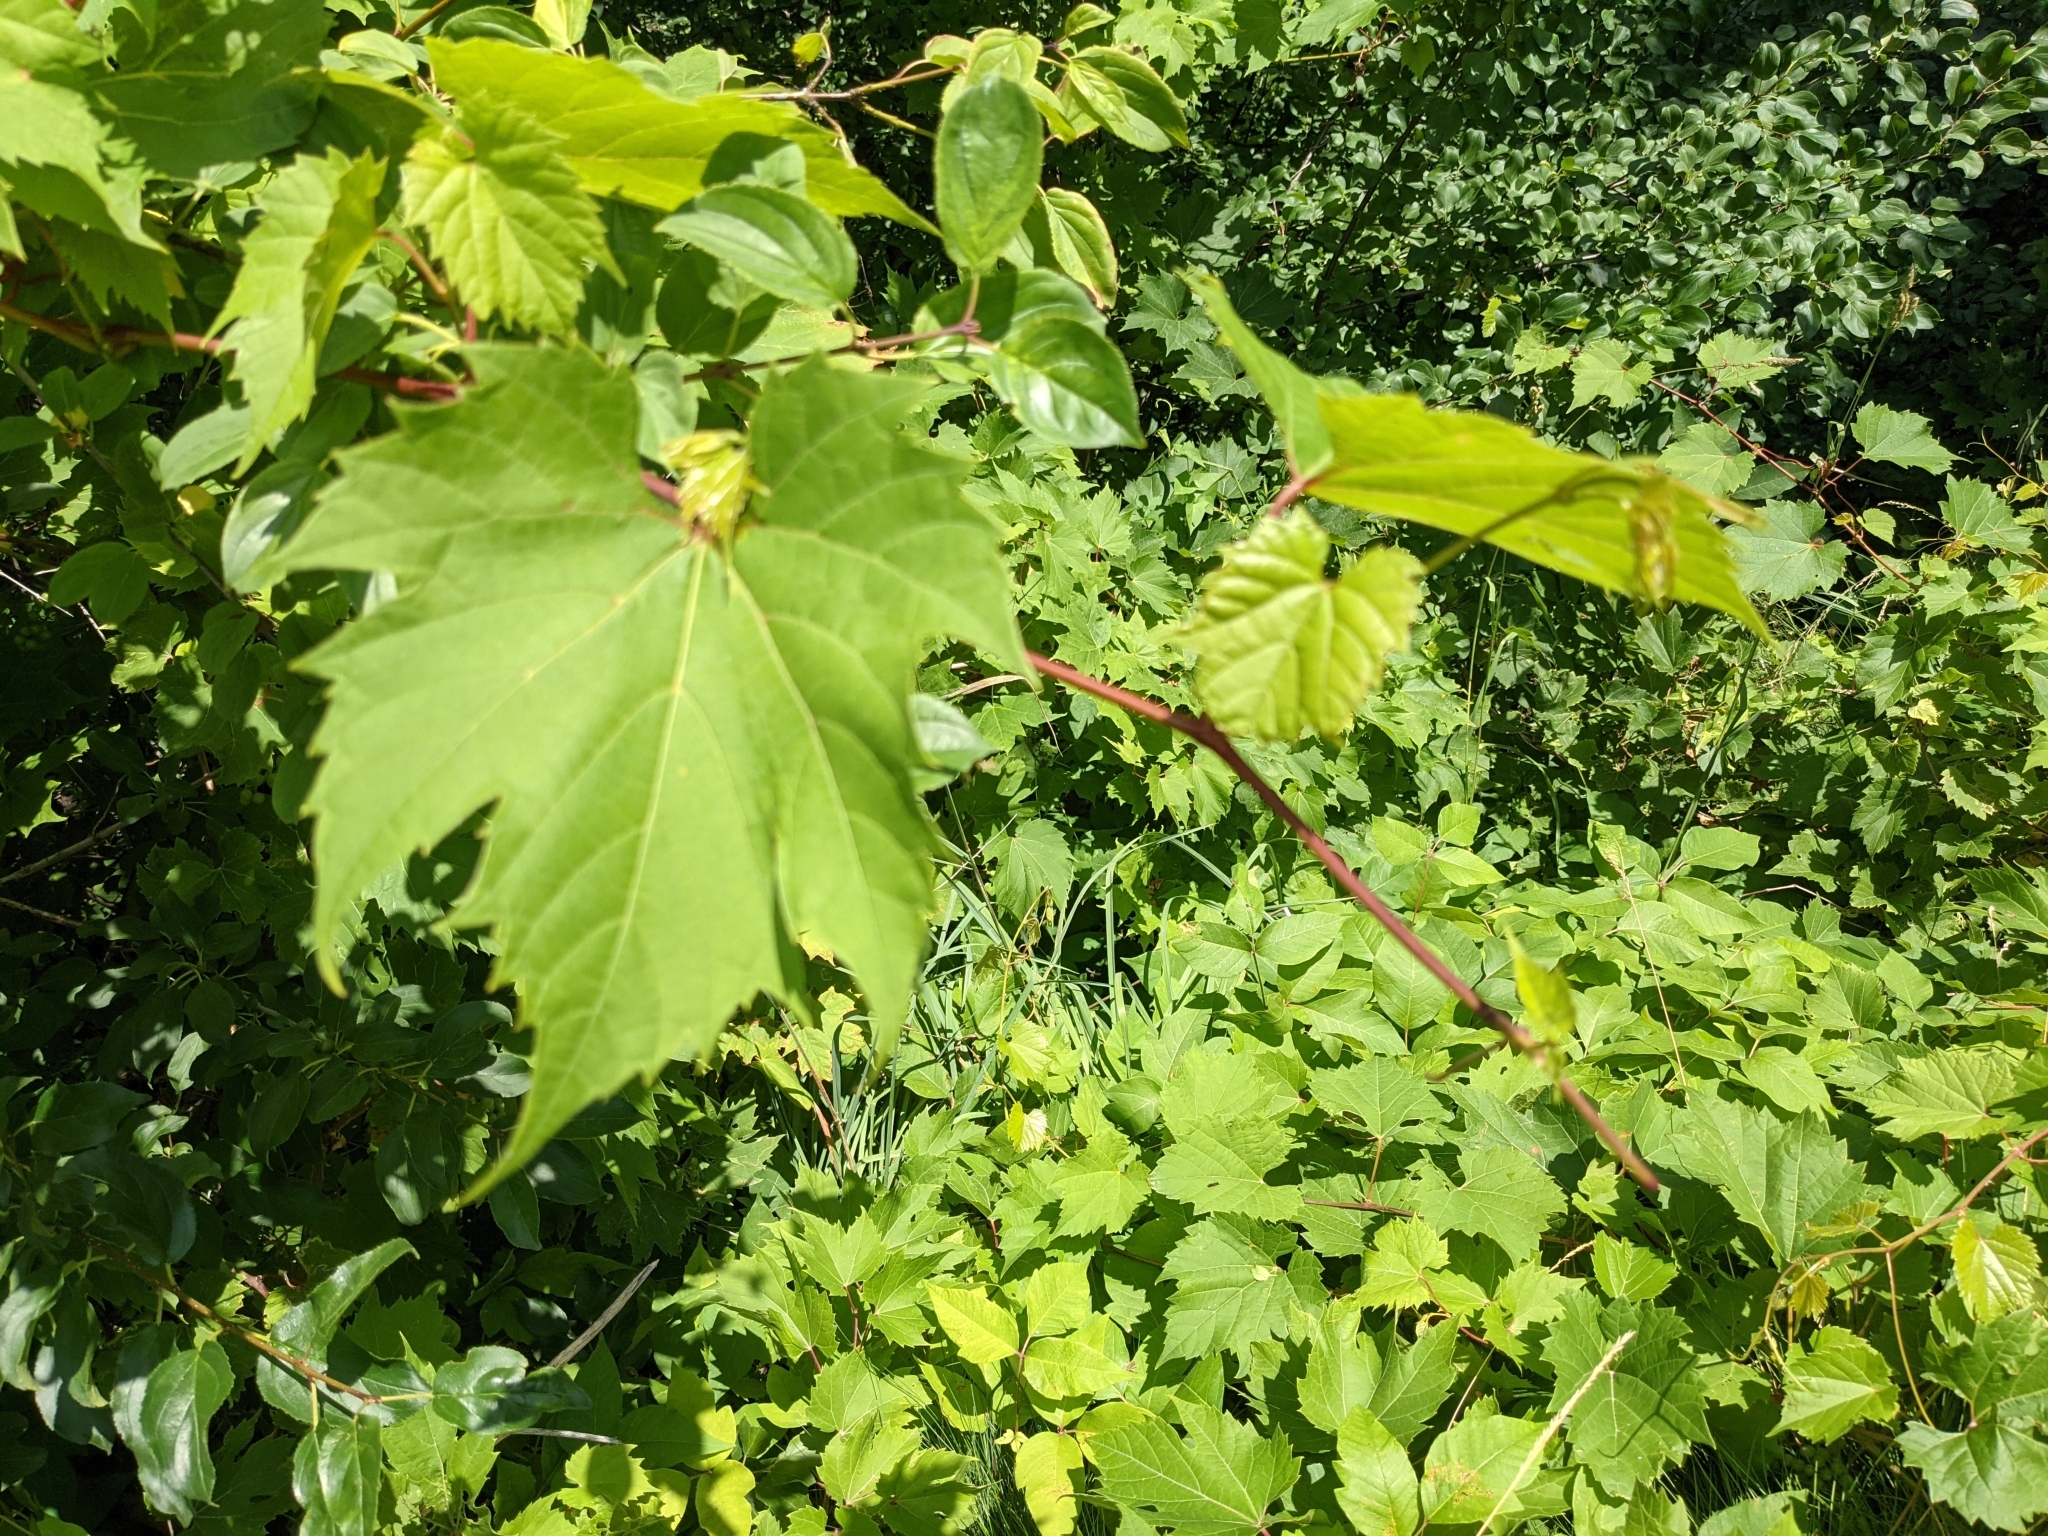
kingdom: Plantae
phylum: Tracheophyta
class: Magnoliopsida
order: Vitales
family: Vitaceae
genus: Vitis
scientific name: Vitis riparia
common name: Frost grape
